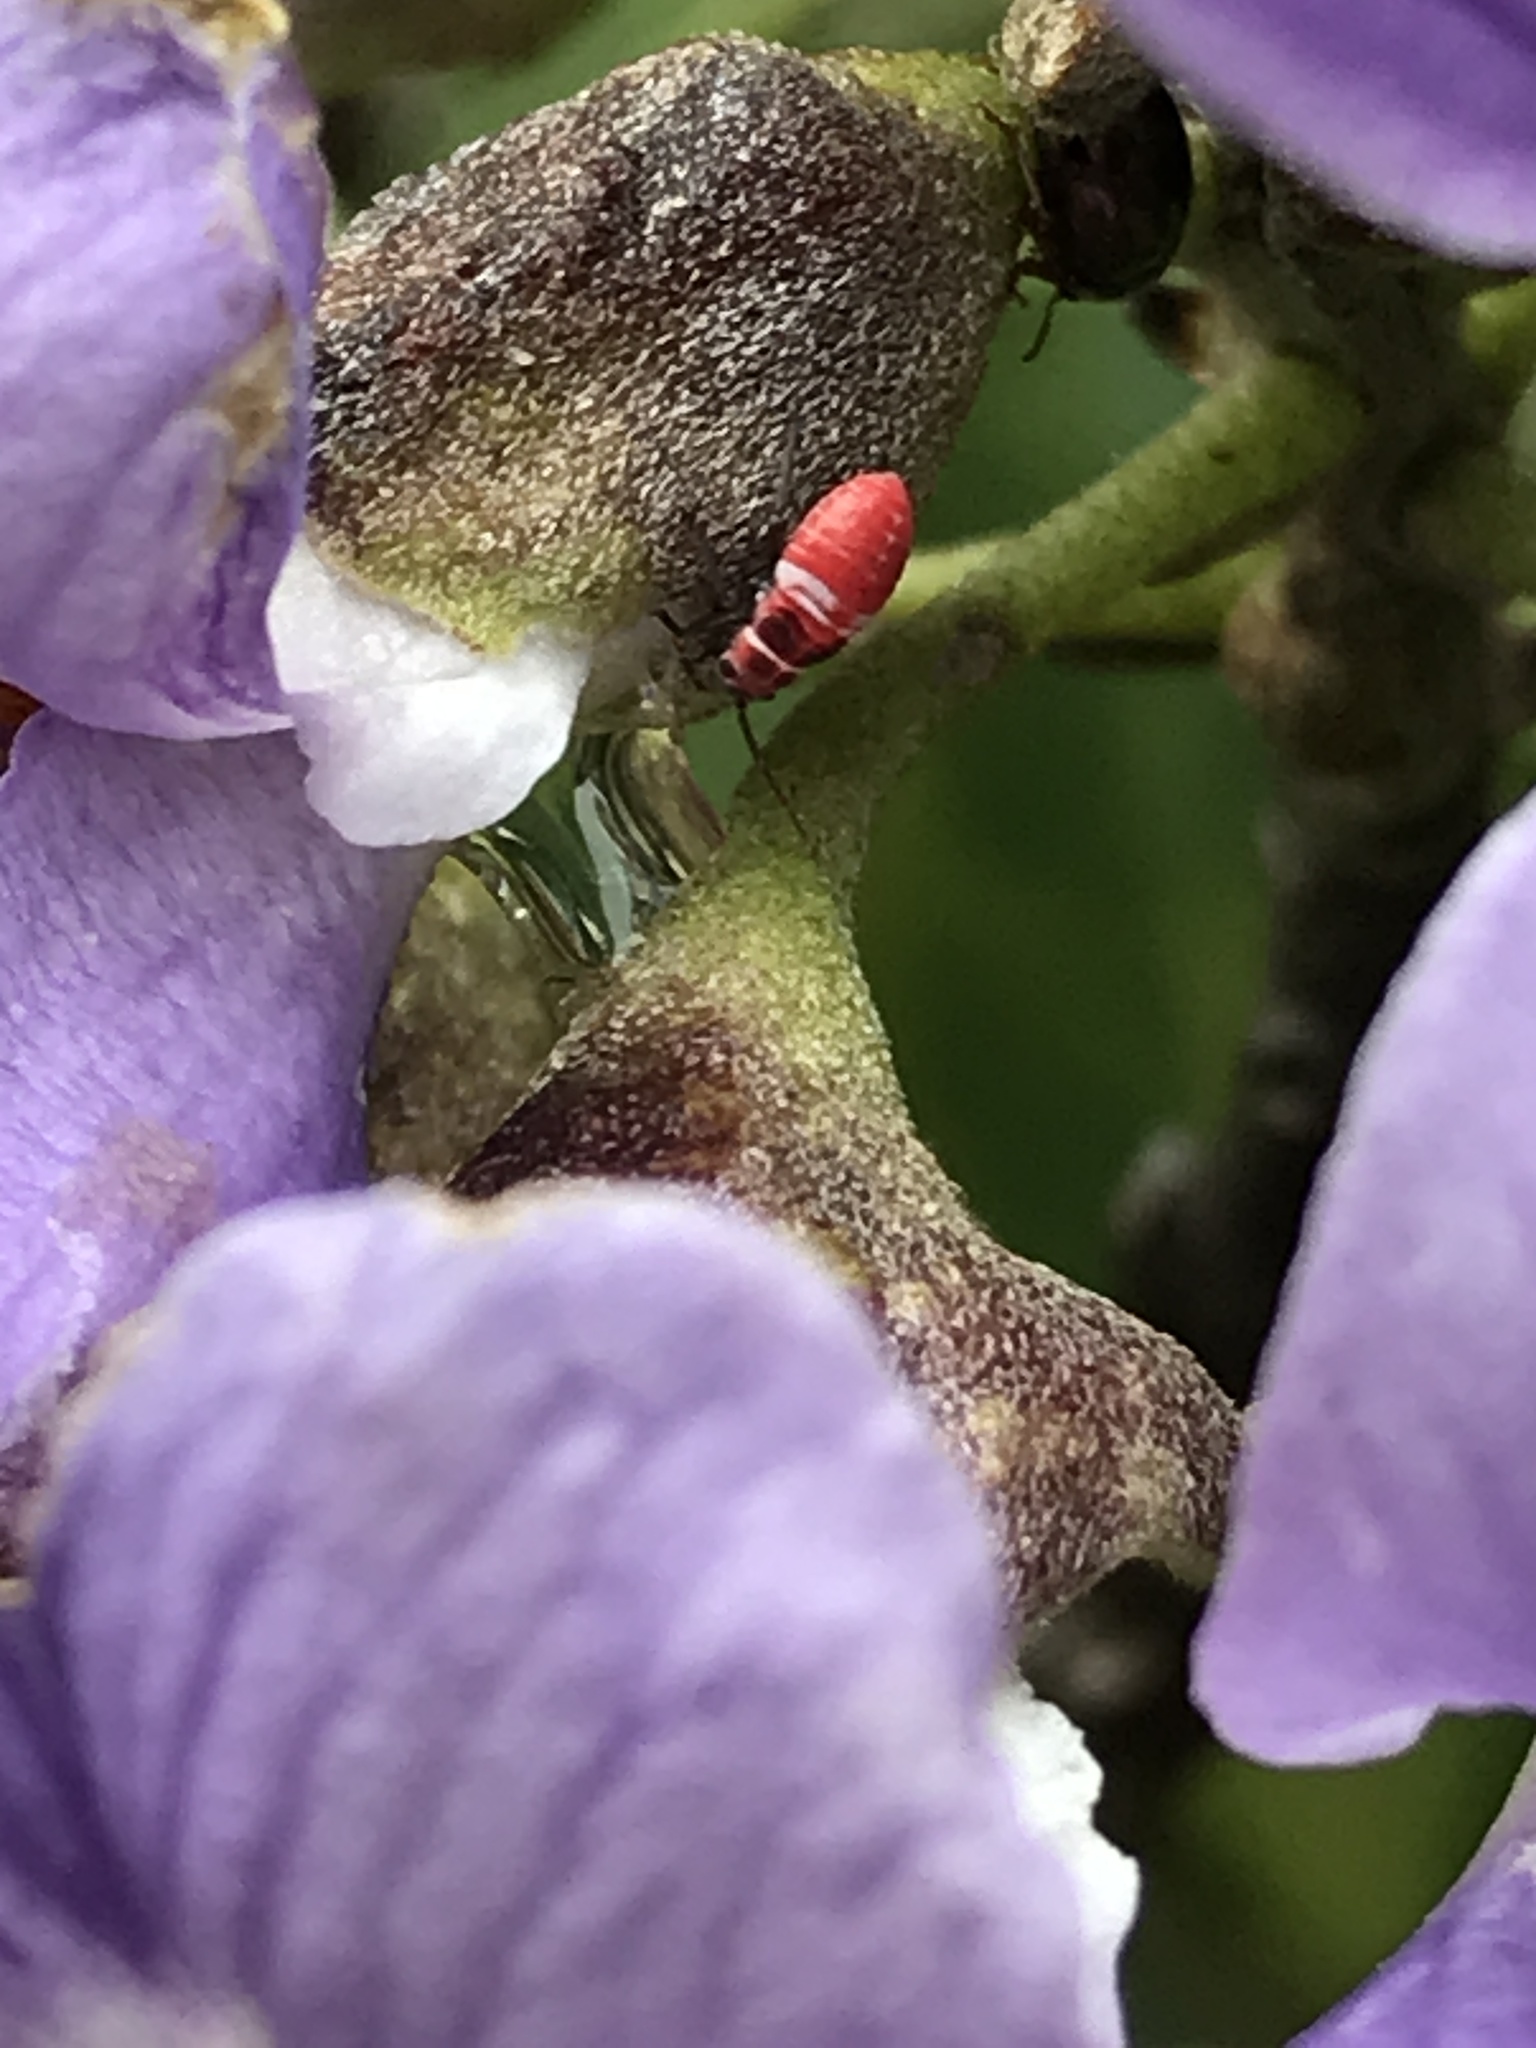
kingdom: Animalia
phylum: Arthropoda
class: Insecta
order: Hemiptera
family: Miridae
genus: Lopidea
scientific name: Lopidea major
